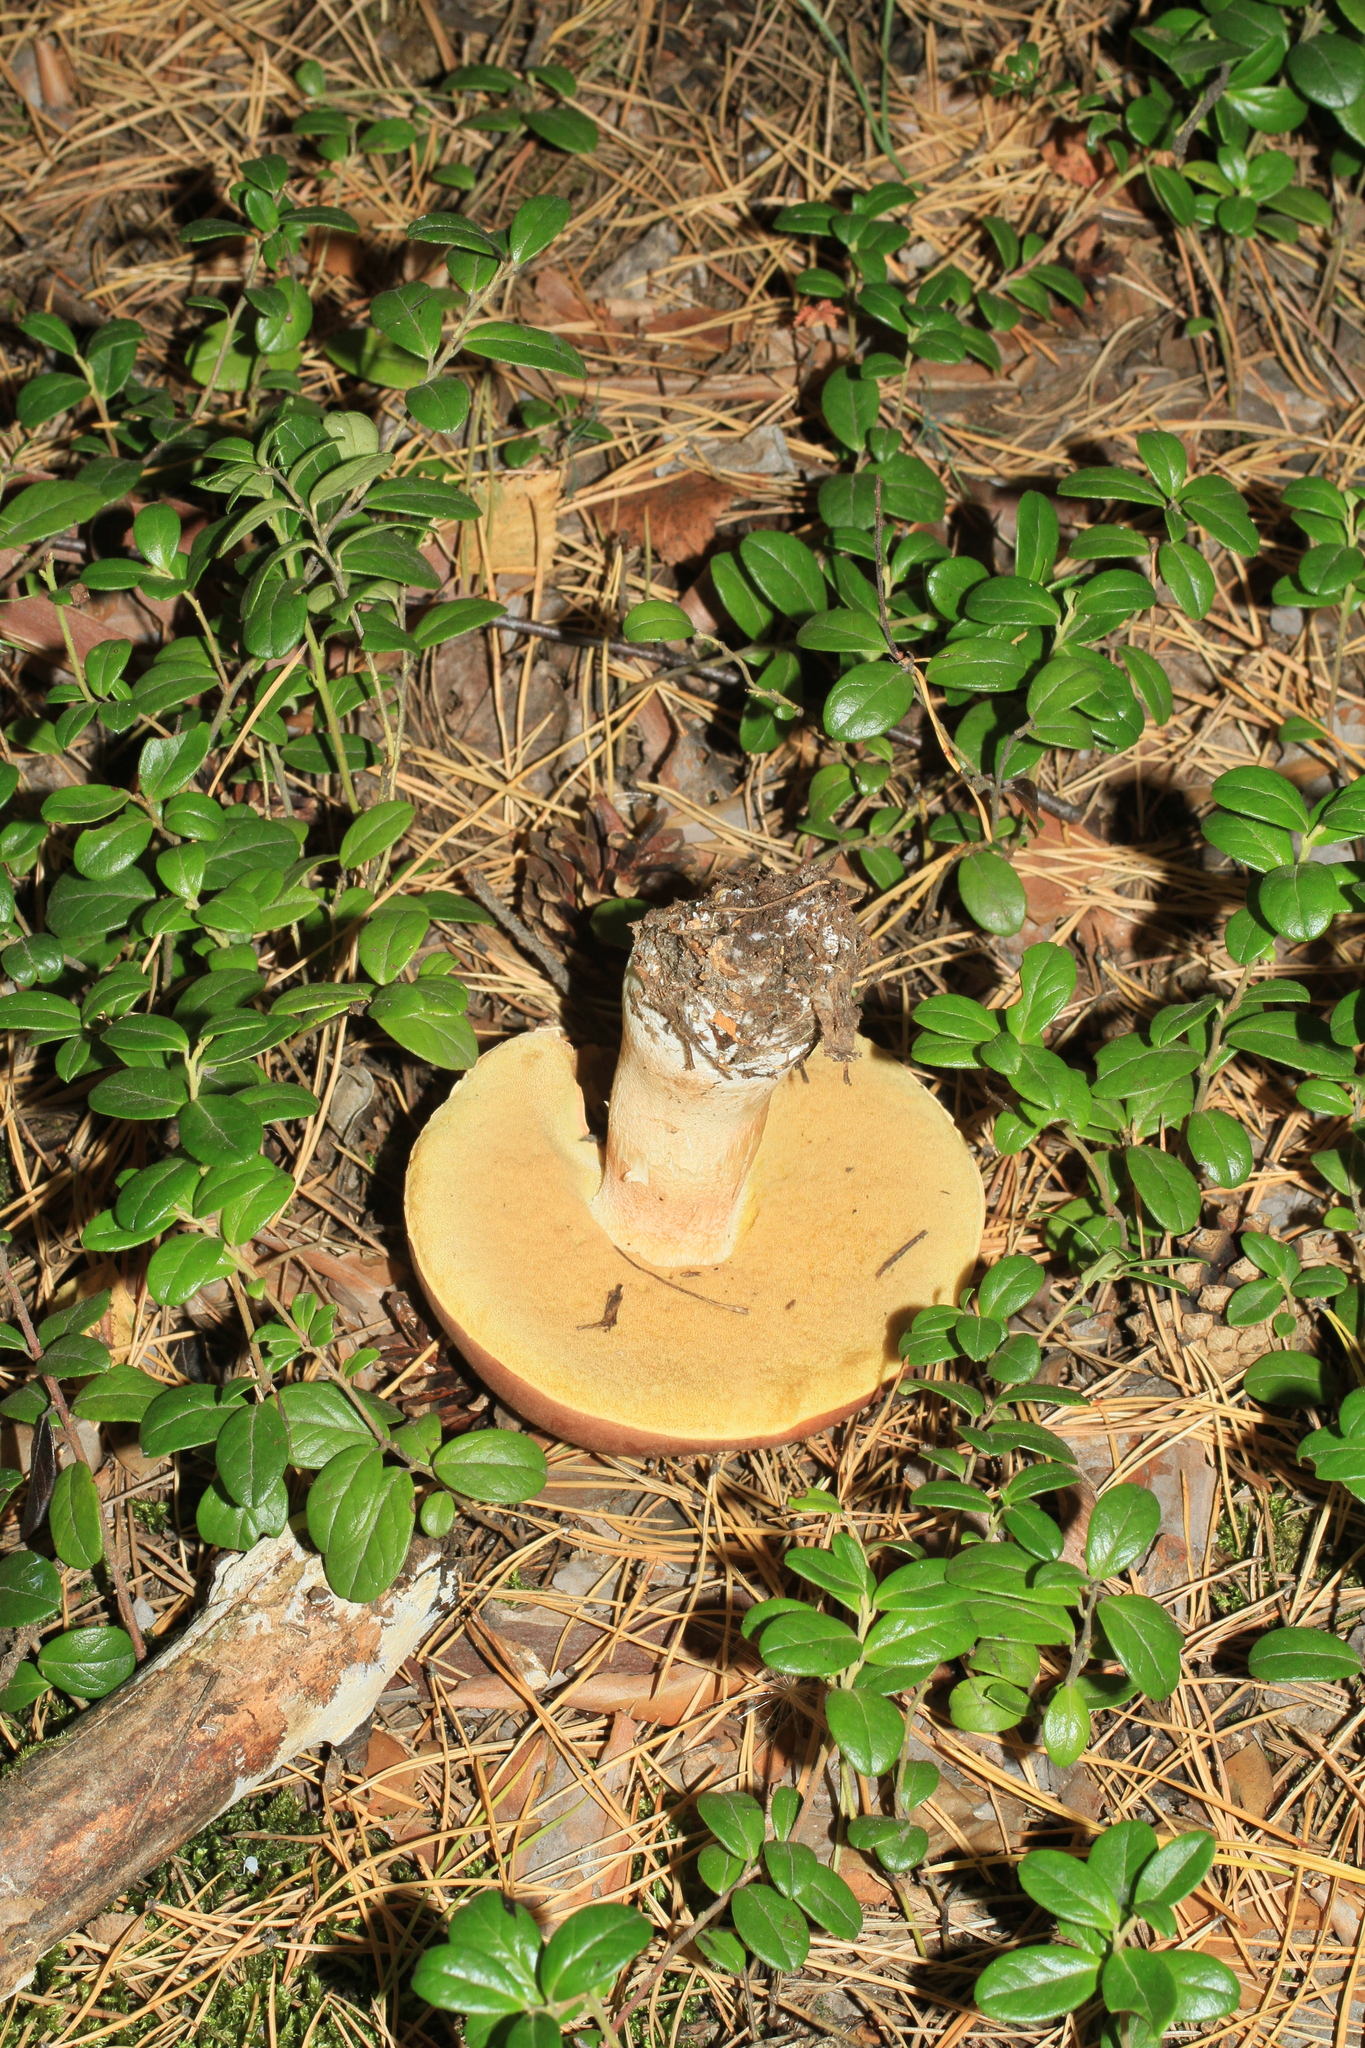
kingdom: Plantae
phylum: Tracheophyta
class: Magnoliopsida
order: Ericales
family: Ericaceae
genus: Vaccinium
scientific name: Vaccinium vitis-idaea
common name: Cowberry
